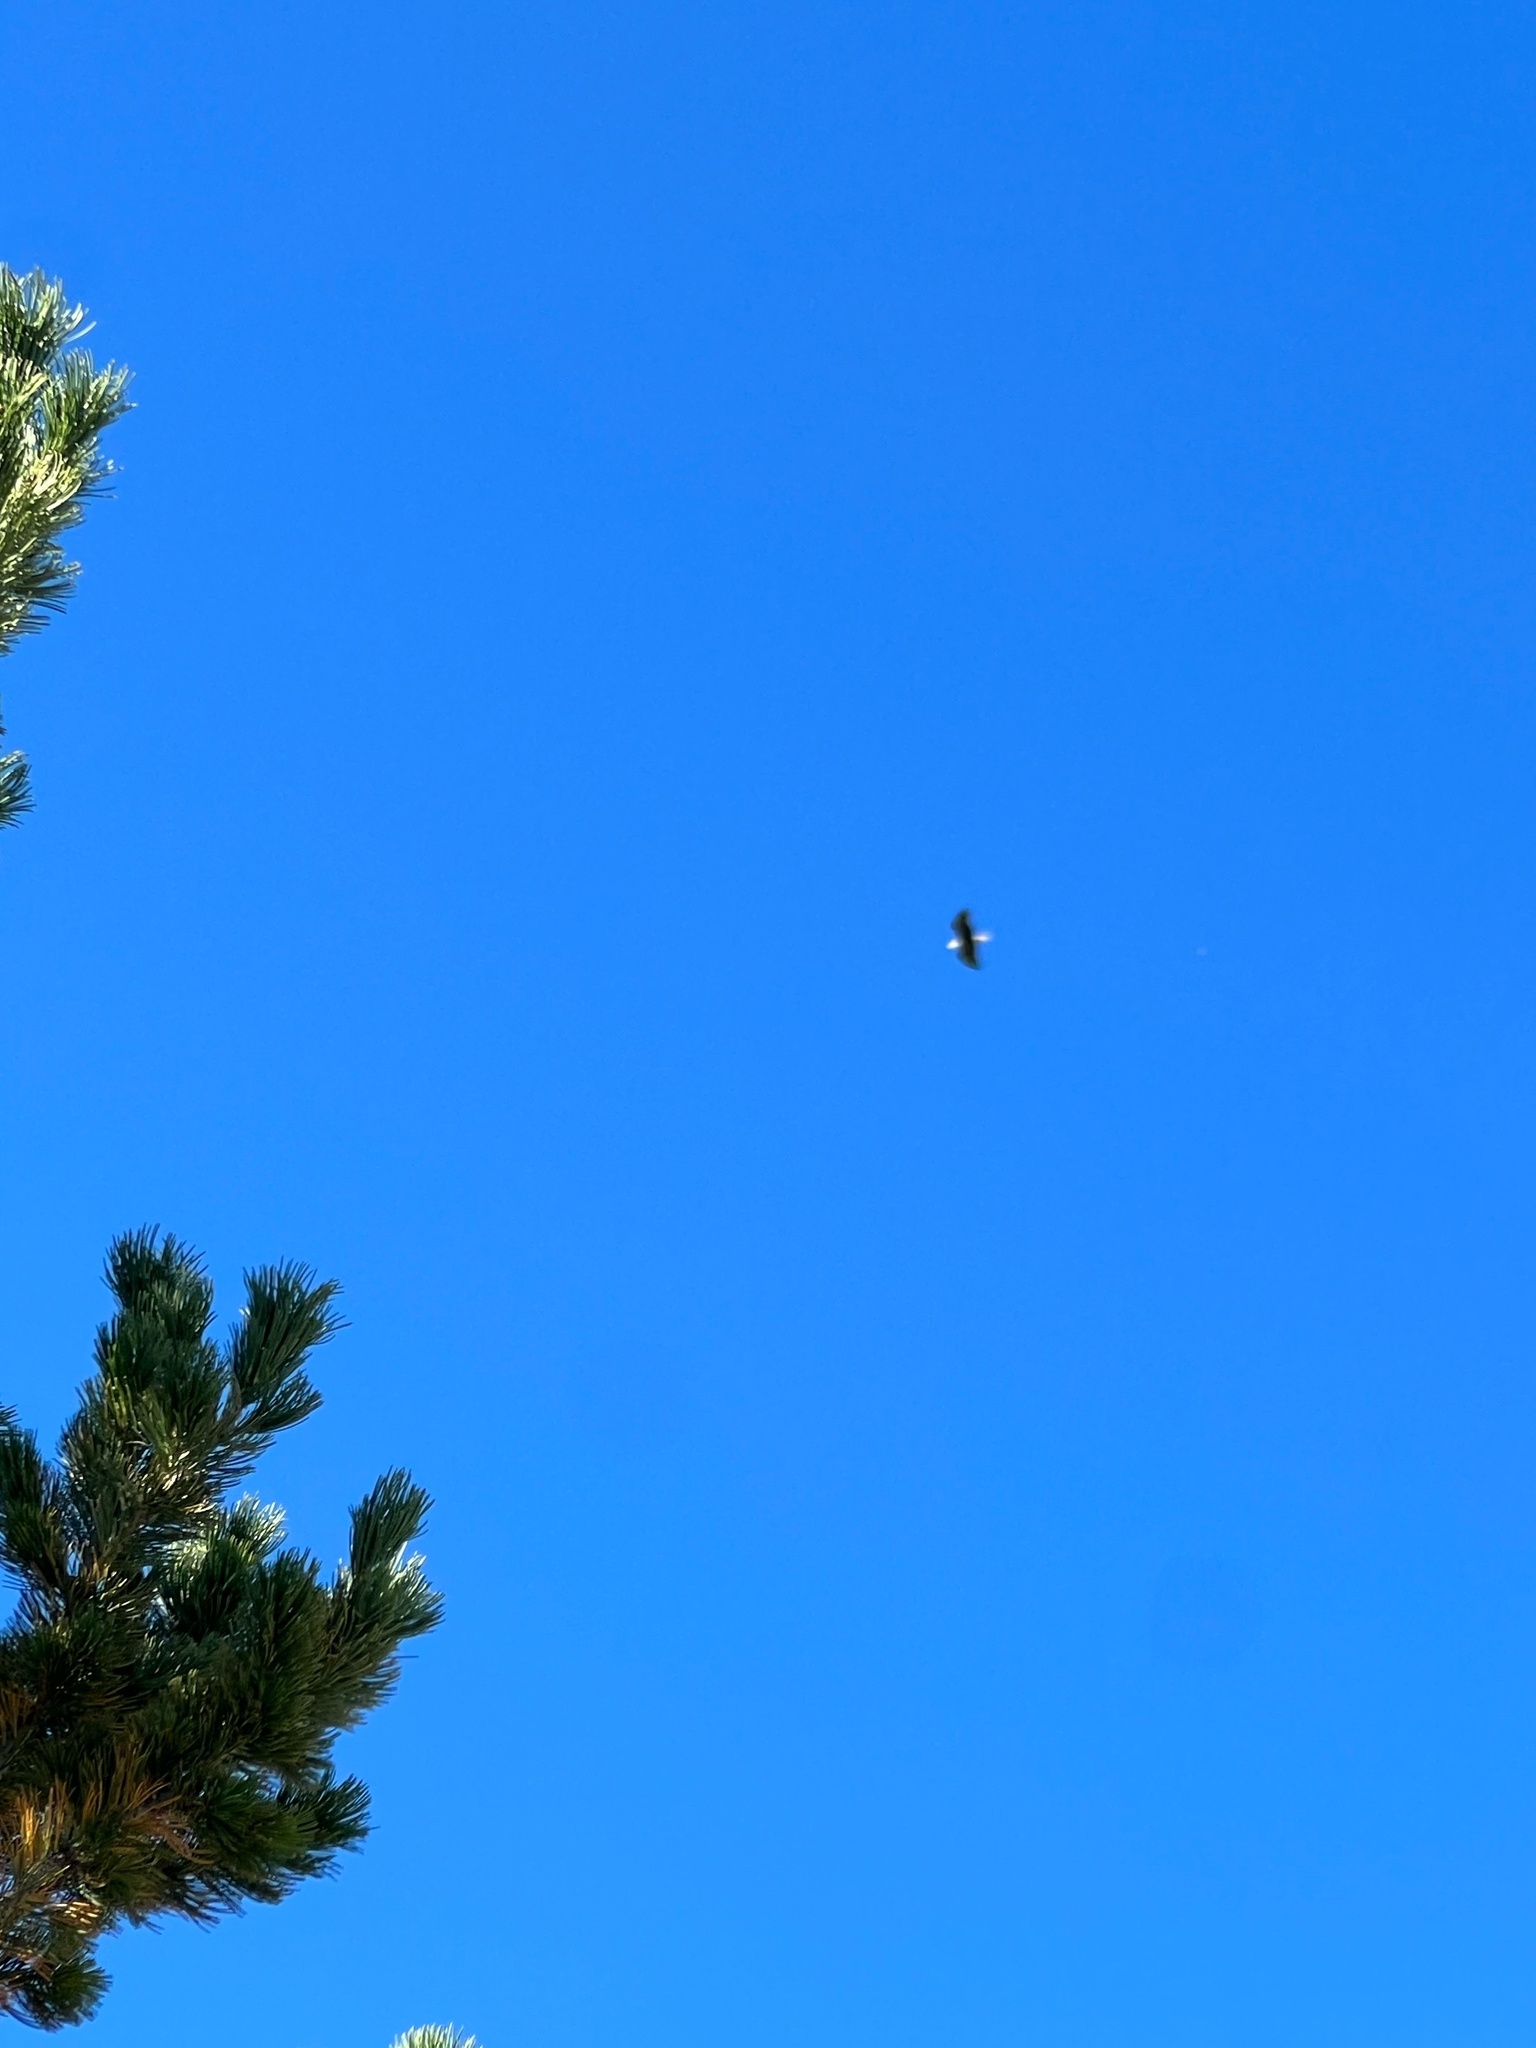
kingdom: Animalia
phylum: Chordata
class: Aves
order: Accipitriformes
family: Accipitridae
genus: Haliaeetus
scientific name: Haliaeetus leucocephalus
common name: Bald eagle
